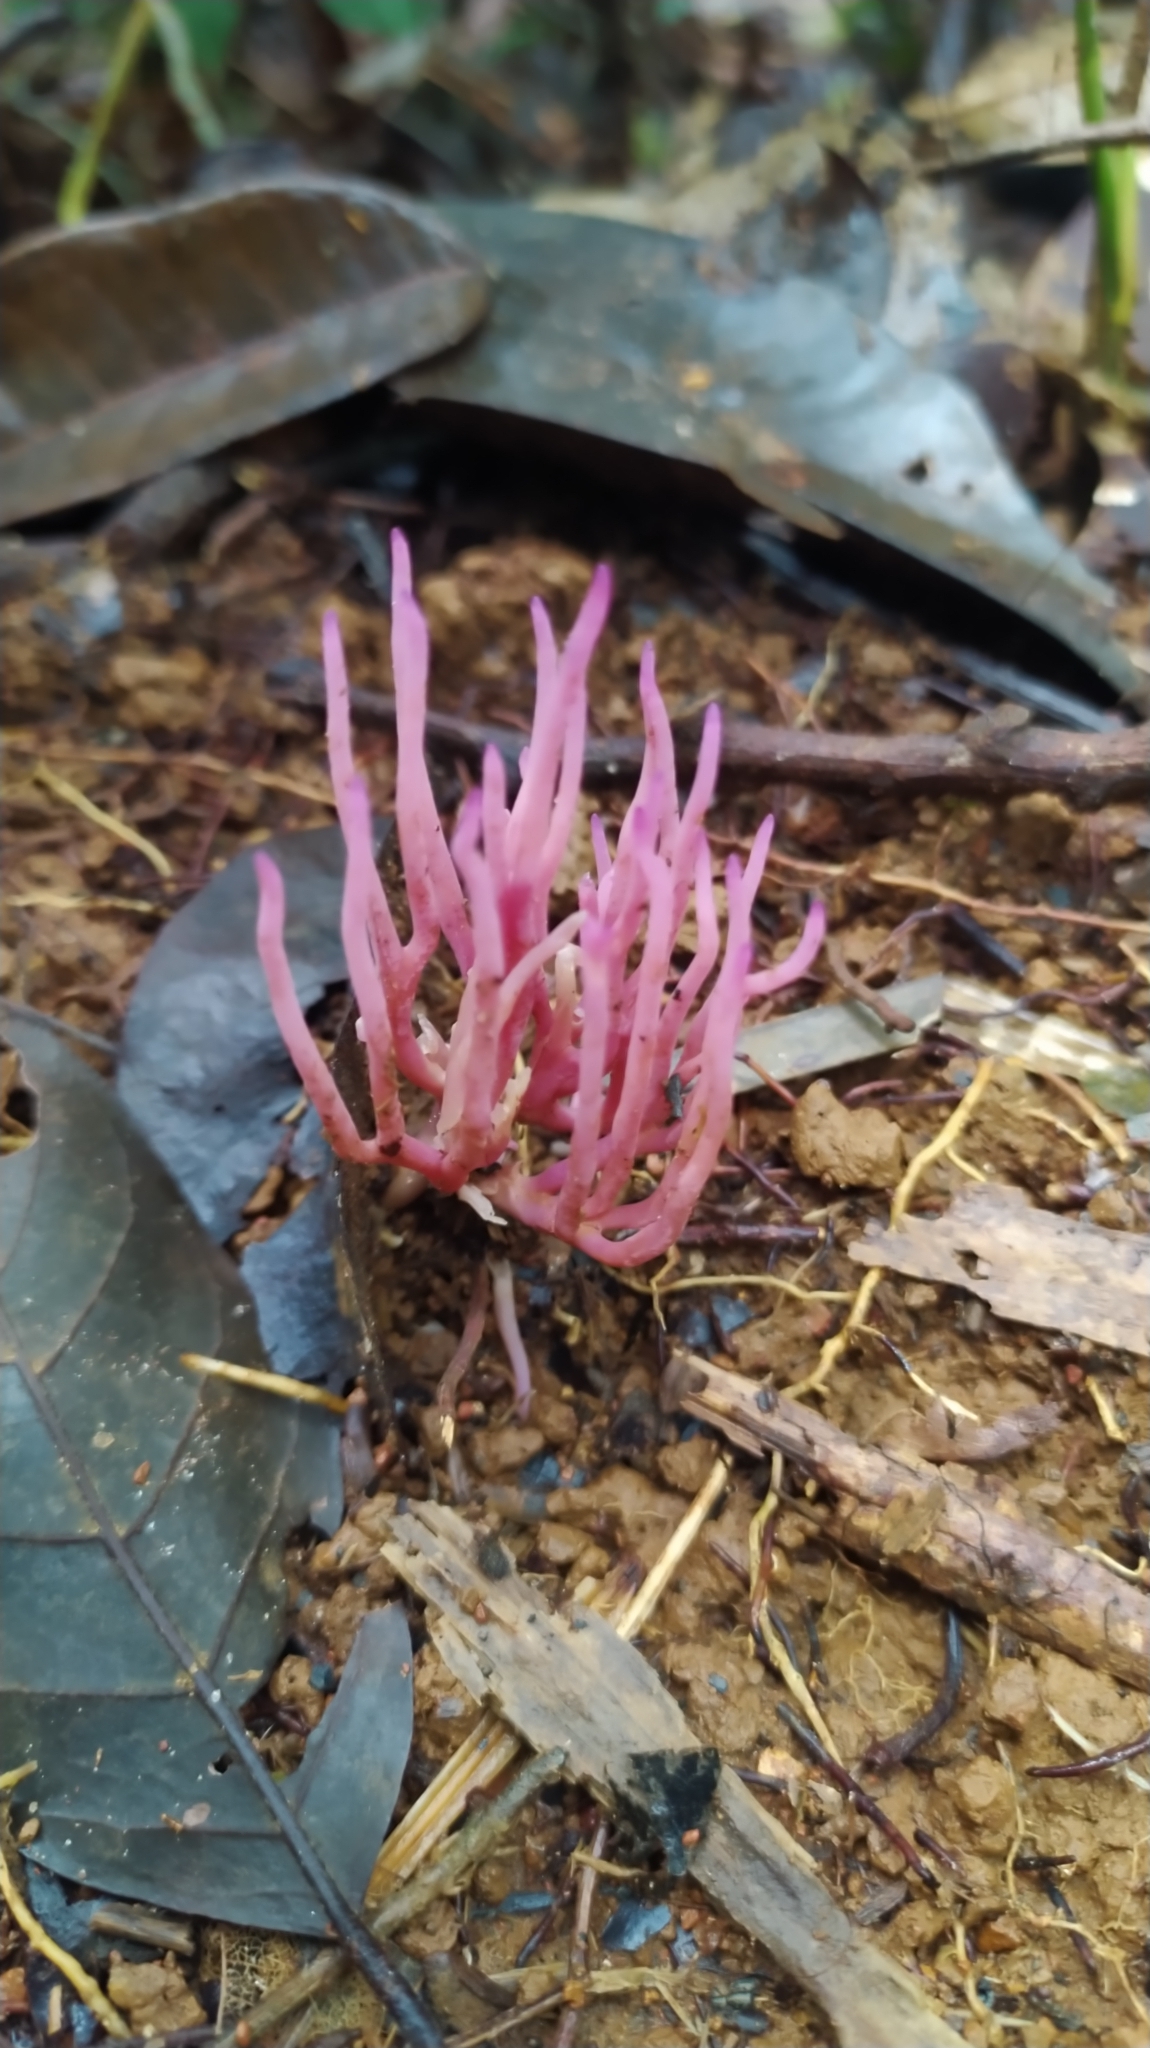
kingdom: Fungi
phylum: Basidiomycota
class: Agaricomycetes
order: Agaricales
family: Clavariaceae
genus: Clavaria
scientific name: Clavaria zollingeri
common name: Violet coral
